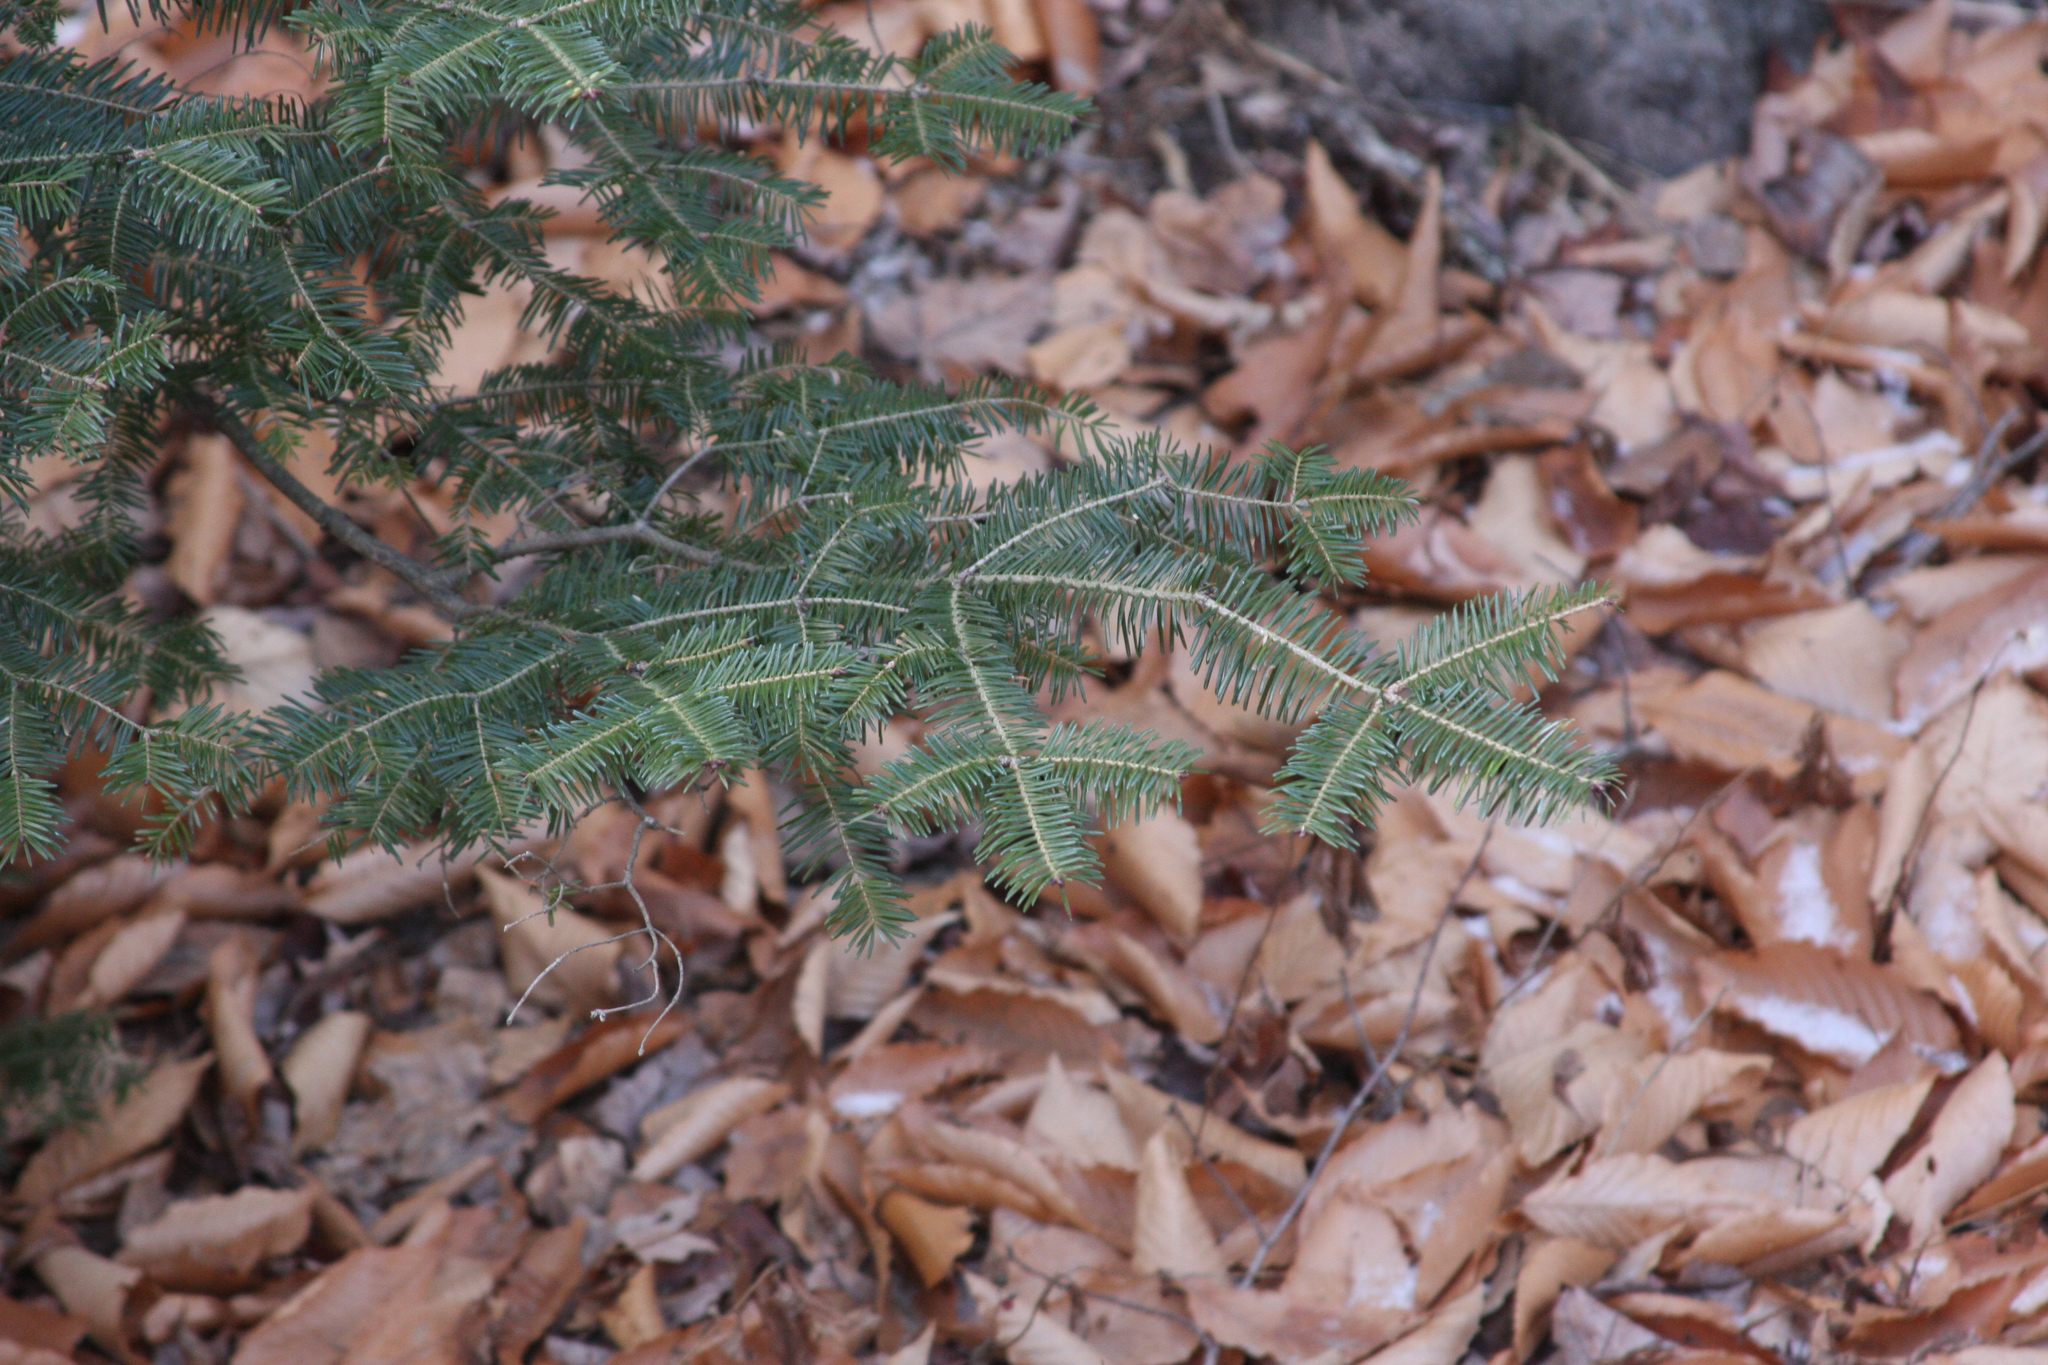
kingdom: Plantae
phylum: Tracheophyta
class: Pinopsida
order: Pinales
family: Pinaceae
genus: Abies
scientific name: Abies balsamea
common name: Balsam fir
